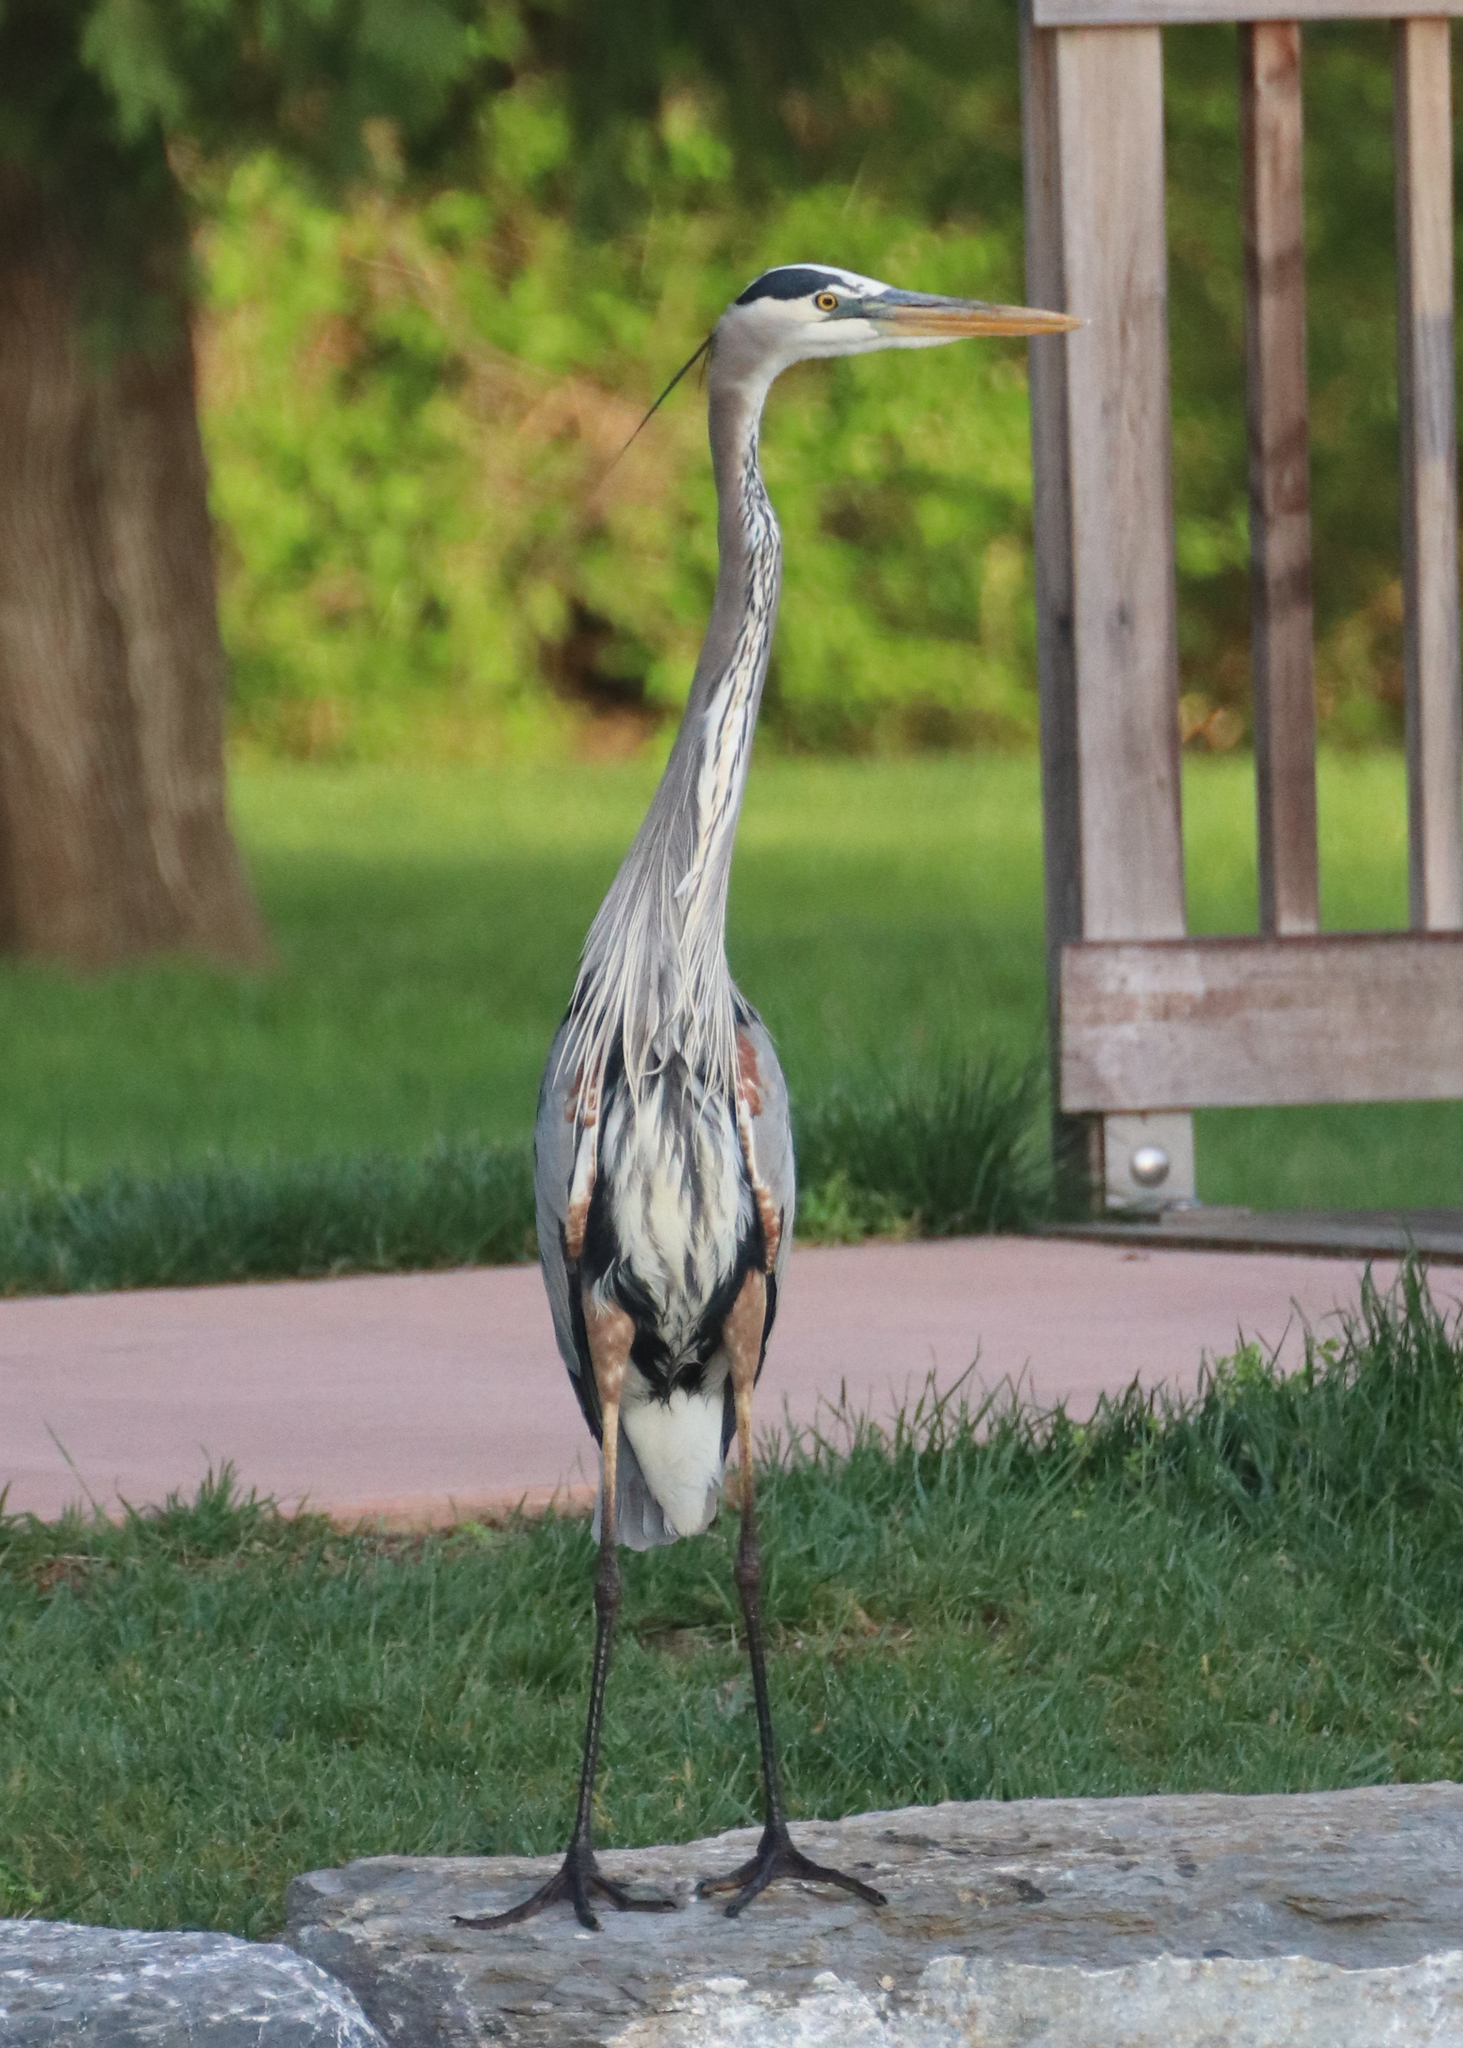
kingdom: Animalia
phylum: Chordata
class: Aves
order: Pelecaniformes
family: Ardeidae
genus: Ardea
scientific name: Ardea herodias
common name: Great blue heron
